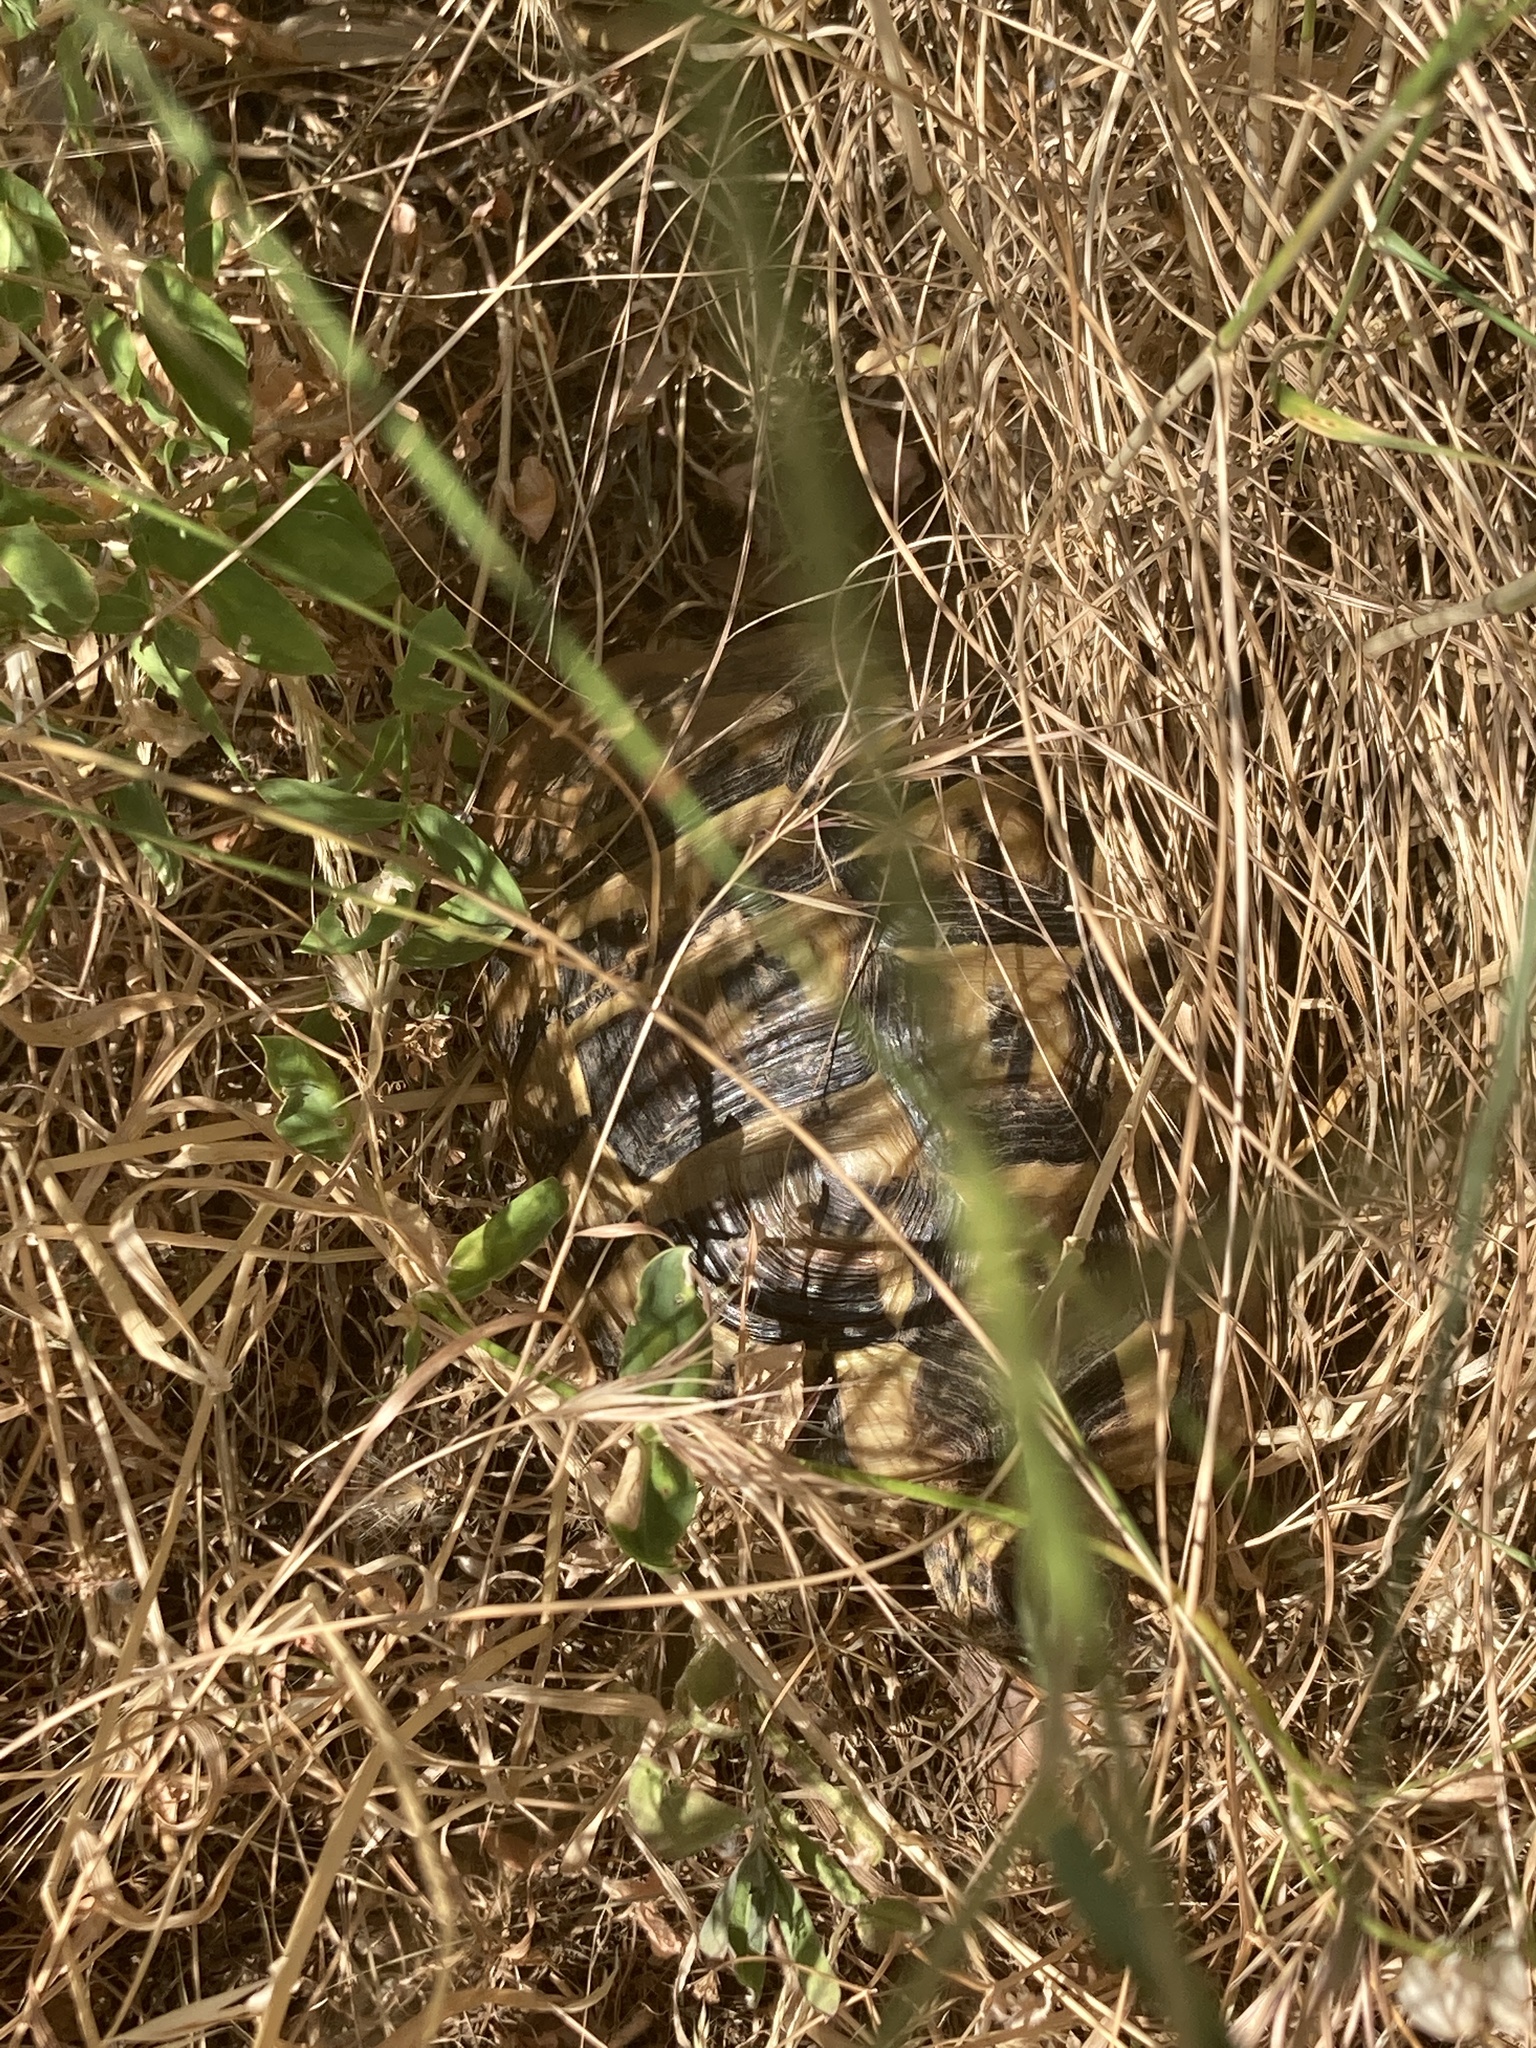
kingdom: Animalia
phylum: Chordata
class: Testudines
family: Testudinidae
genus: Testudo
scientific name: Testudo hermanni
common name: Hermann's tortoise
